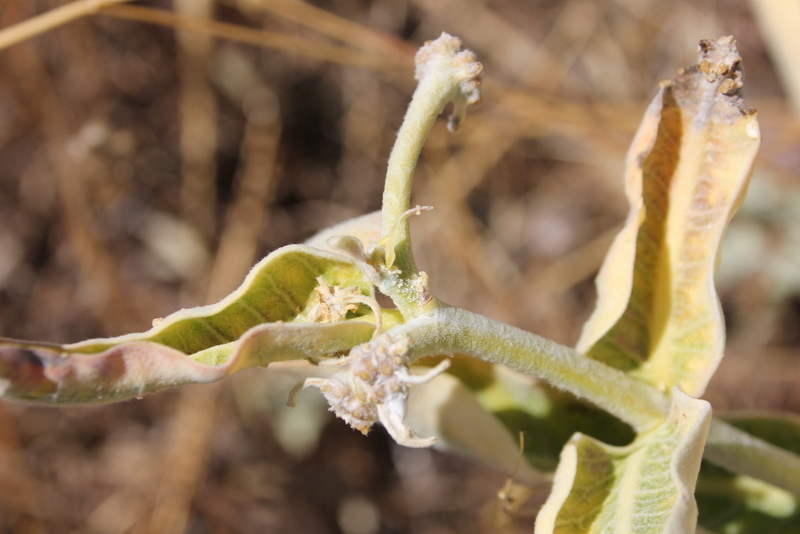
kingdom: Plantae
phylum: Tracheophyta
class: Magnoliopsida
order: Gentianales
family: Apocynaceae
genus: Asclepias
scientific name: Asclepias eriocarpa
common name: Indian milkweed
